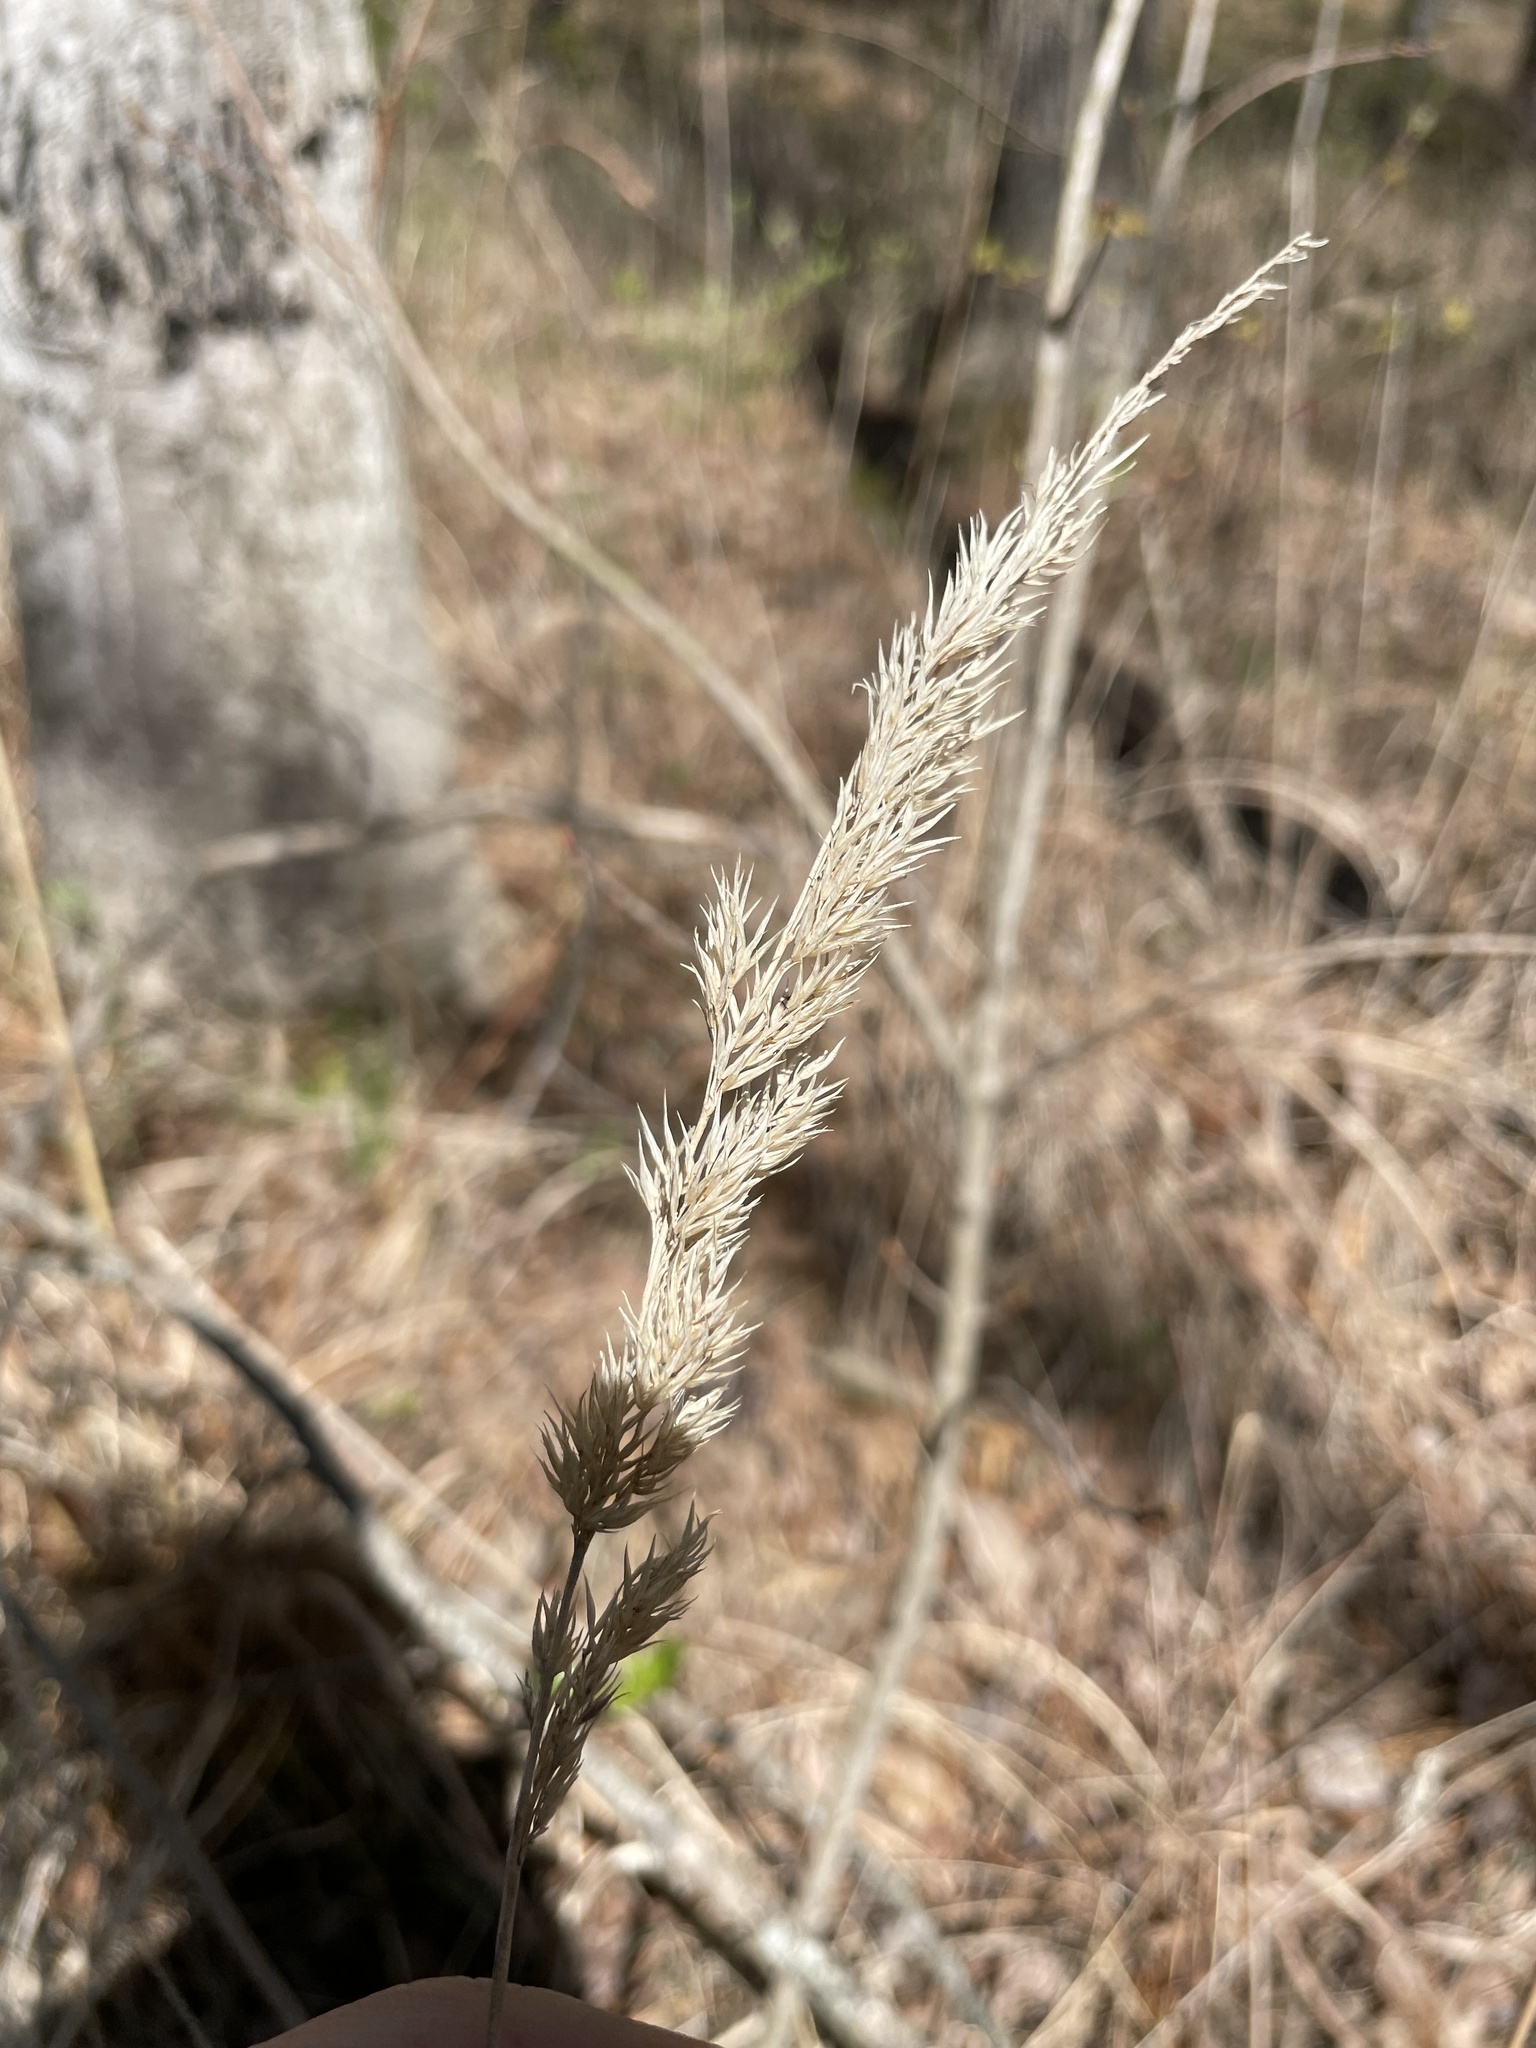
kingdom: Plantae
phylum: Tracheophyta
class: Liliopsida
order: Poales
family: Poaceae
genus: Greeneochloa
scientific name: Greeneochloa coarctata
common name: Small reedgrass
